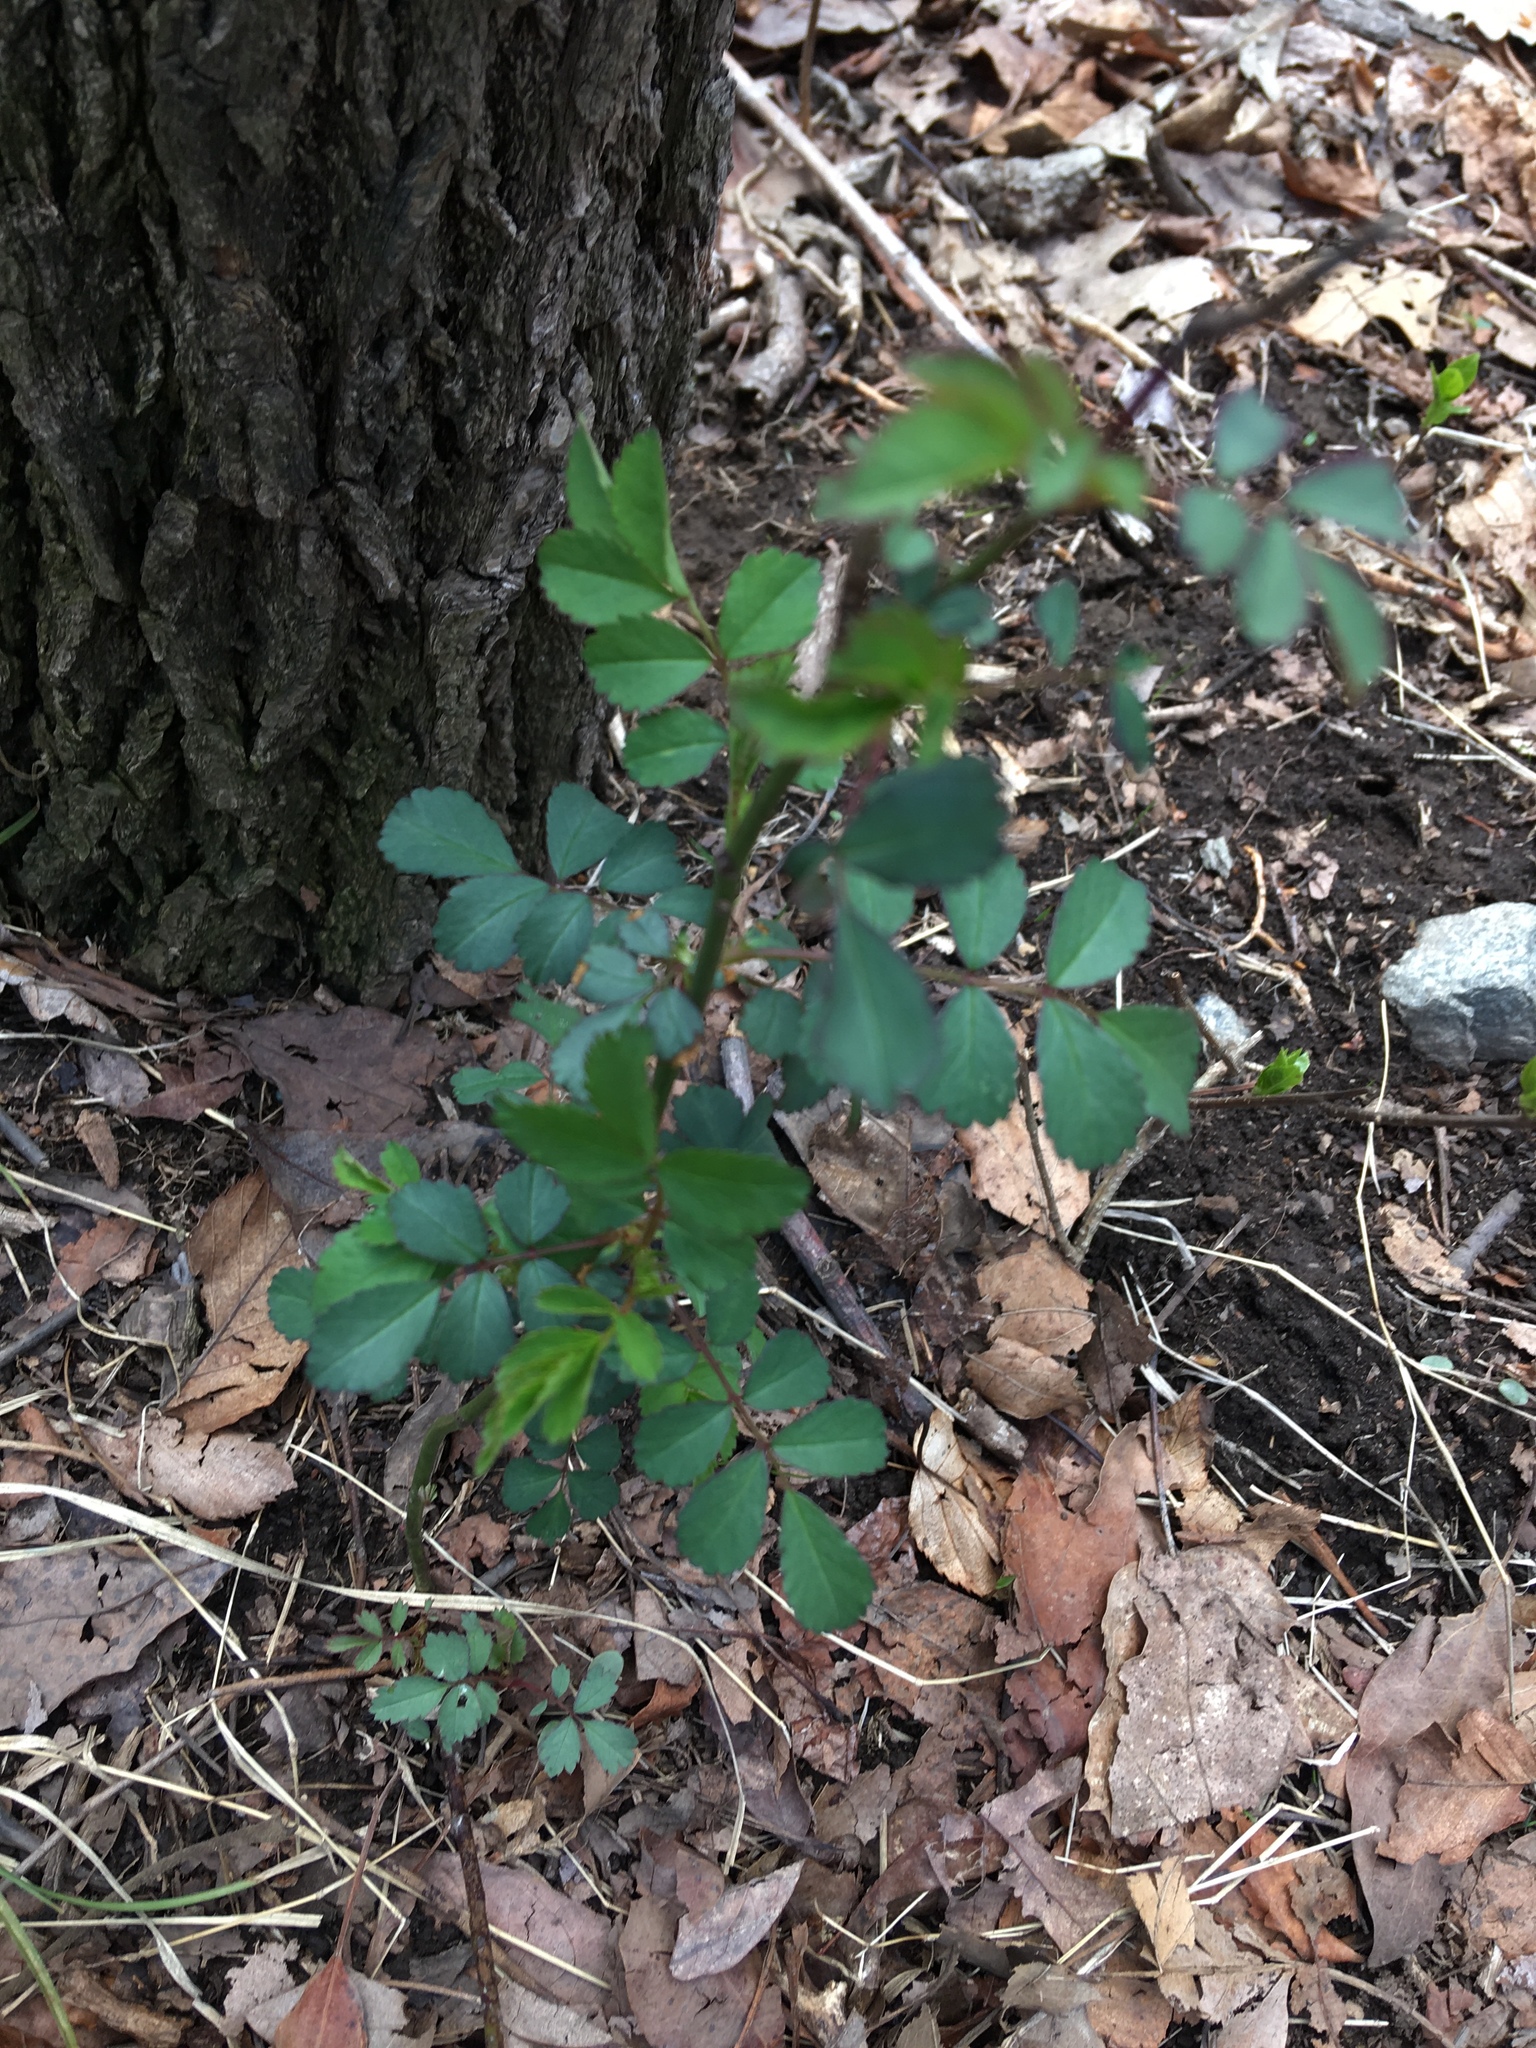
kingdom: Plantae
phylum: Tracheophyta
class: Magnoliopsida
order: Rosales
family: Rosaceae
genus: Rosa
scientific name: Rosa multiflora
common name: Multiflora rose
